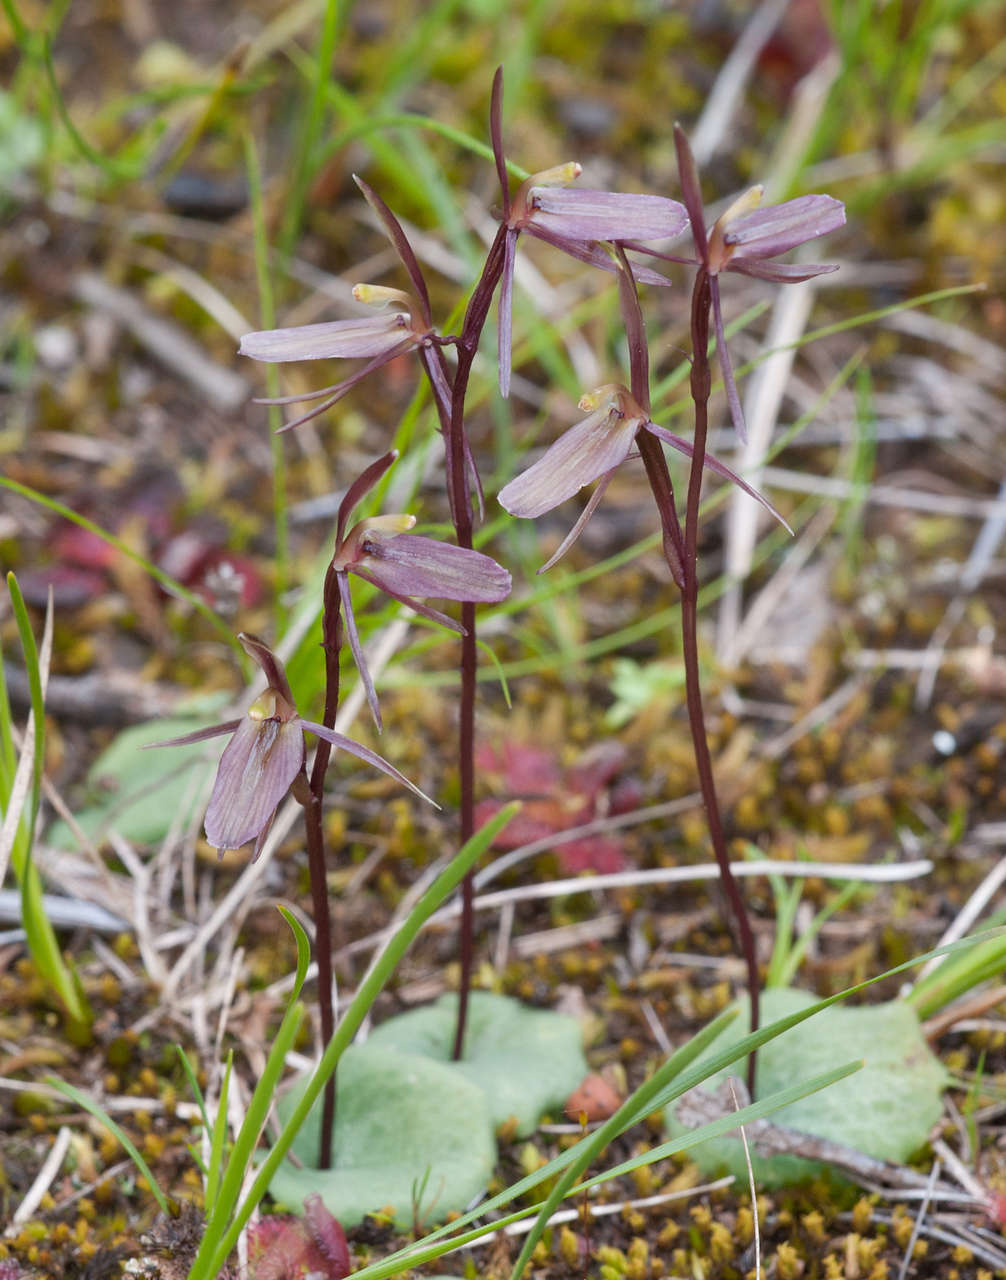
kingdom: Plantae
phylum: Tracheophyta
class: Liliopsida
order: Asparagales
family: Orchidaceae
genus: Cyrtostylis
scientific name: Cyrtostylis reniformis
